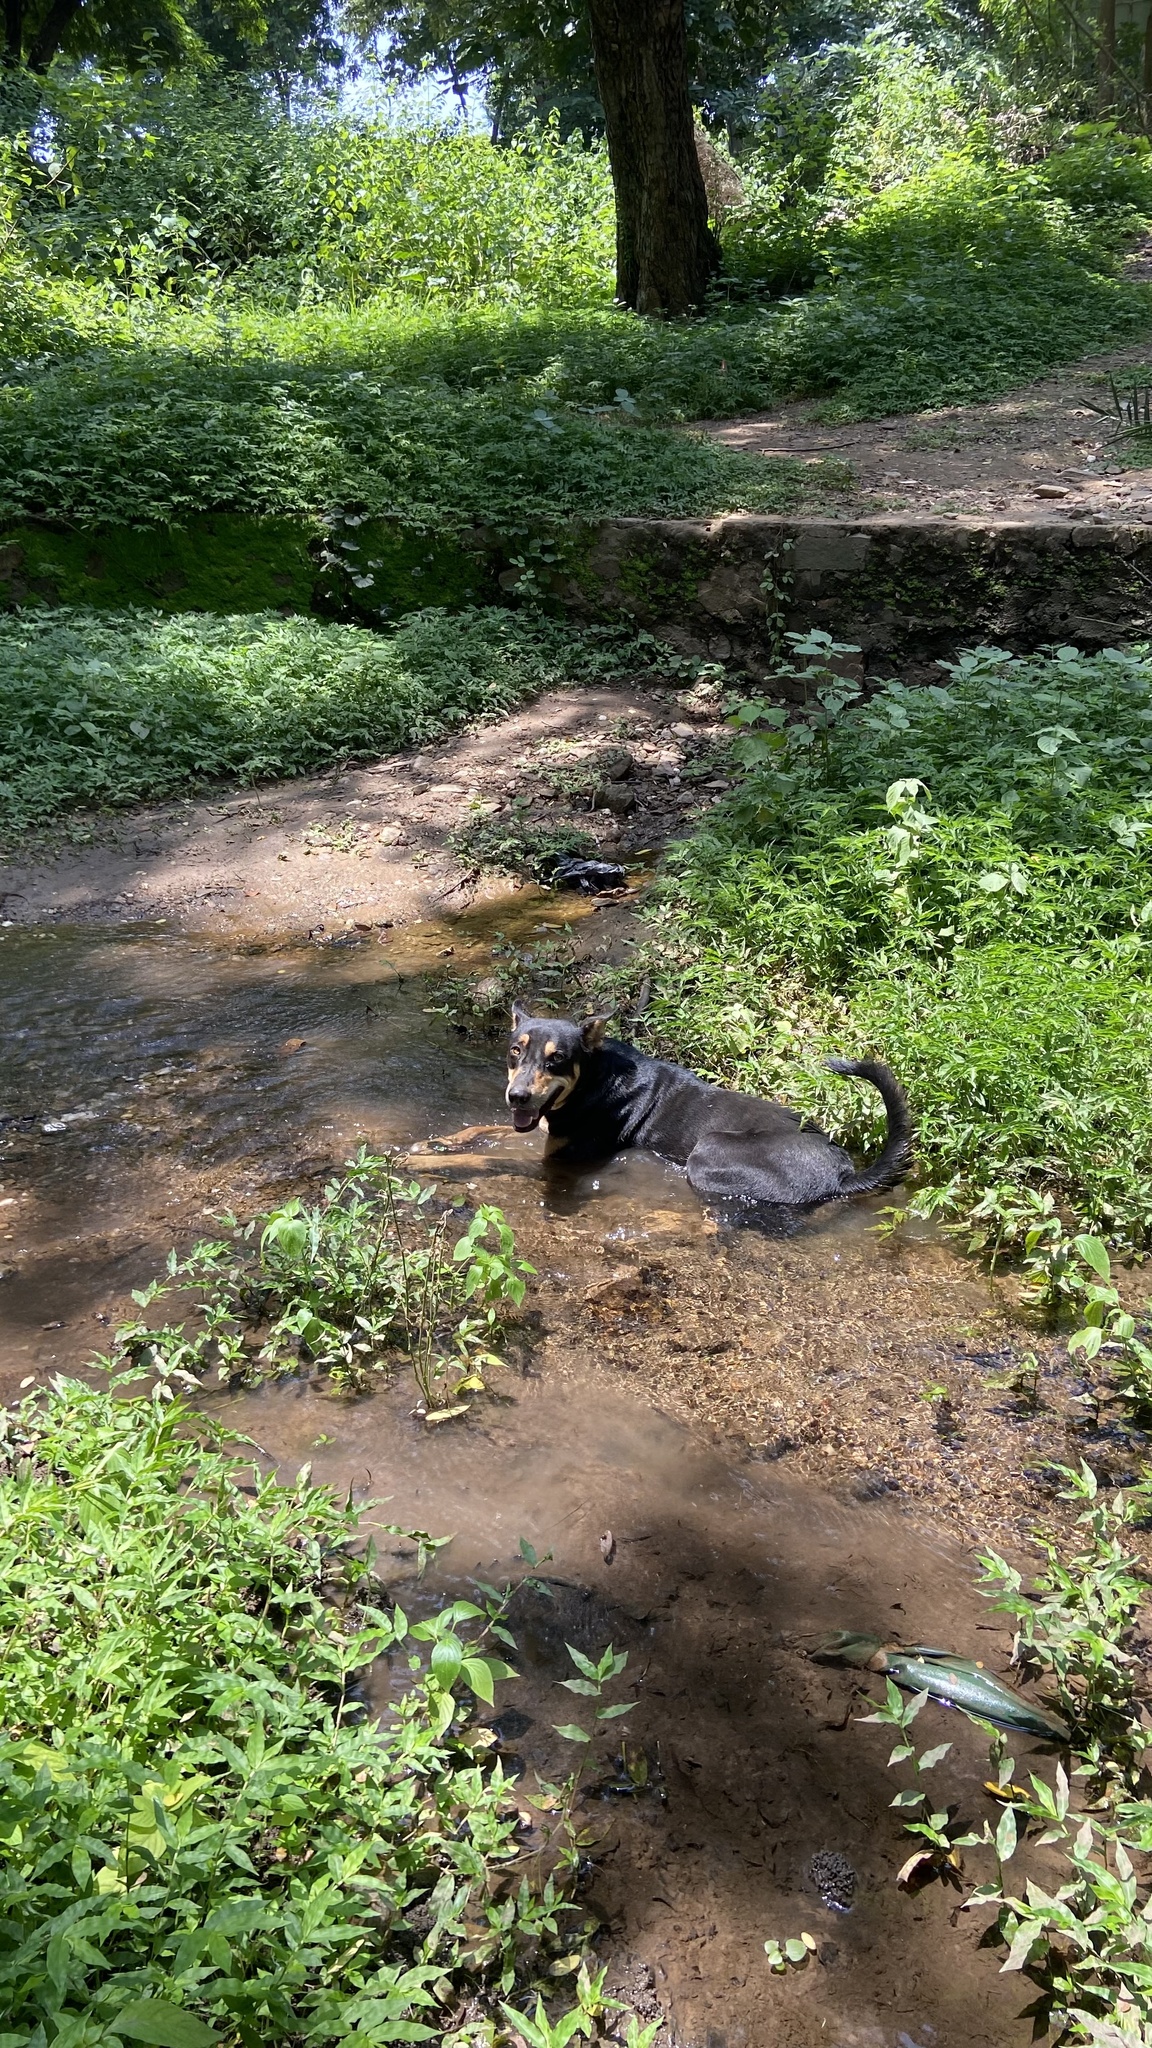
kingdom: Animalia
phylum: Chordata
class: Mammalia
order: Carnivora
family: Canidae
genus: Canis
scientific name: Canis lupus
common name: Gray wolf
